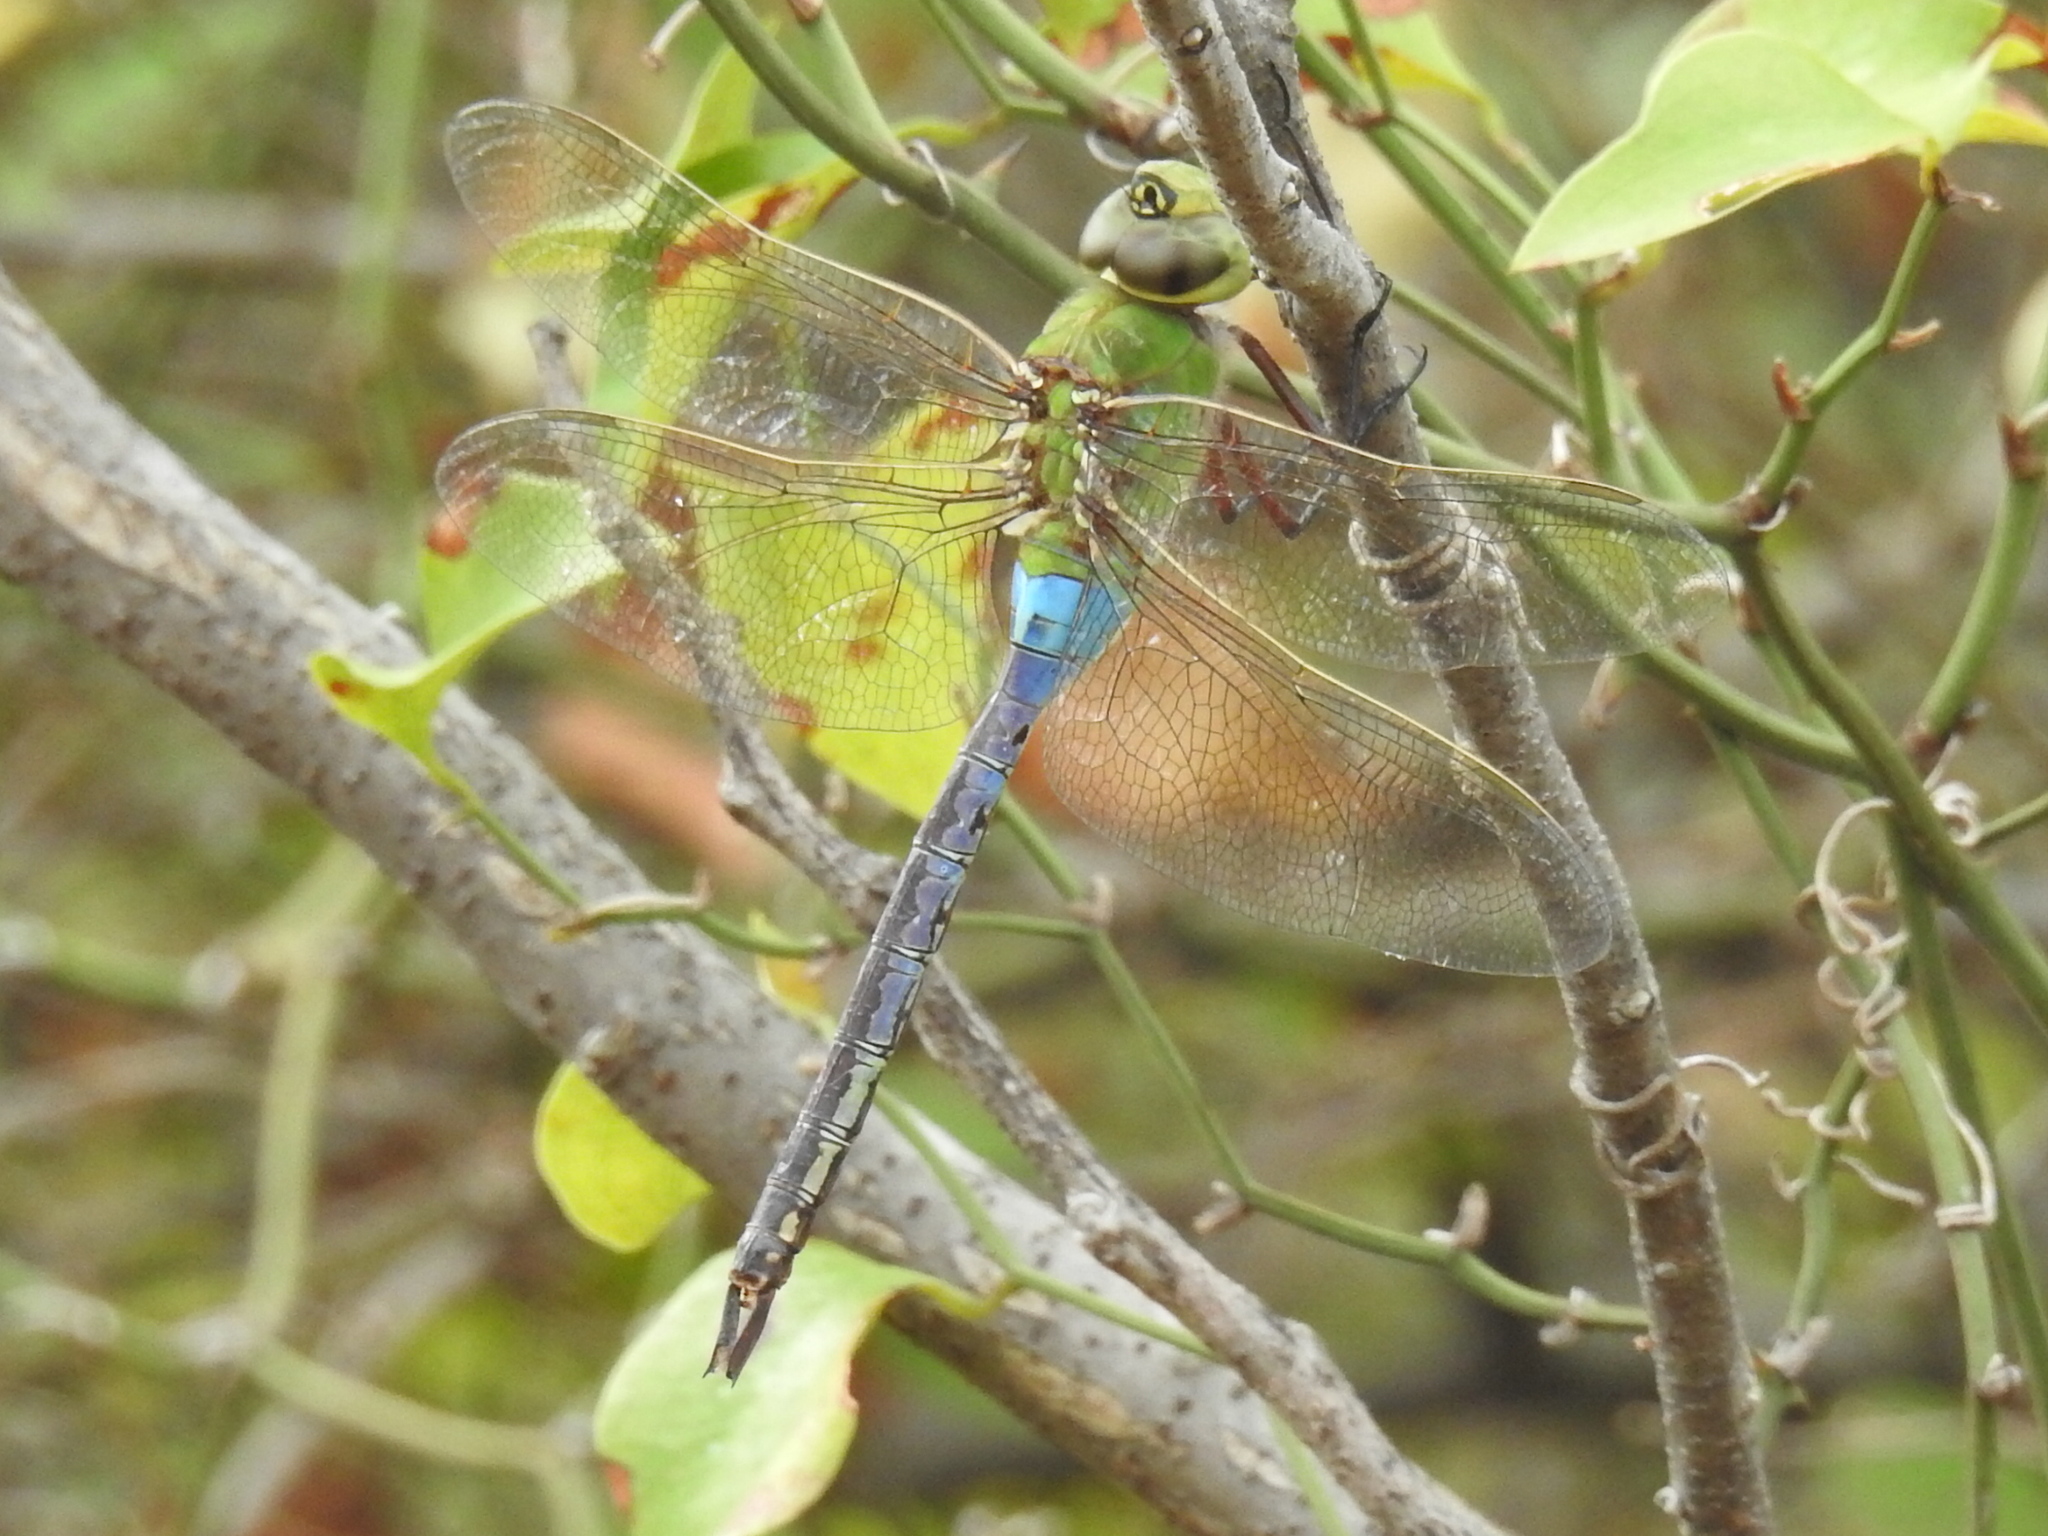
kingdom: Animalia
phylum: Arthropoda
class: Insecta
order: Odonata
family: Aeshnidae
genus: Anax
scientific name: Anax junius
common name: Common green darner
